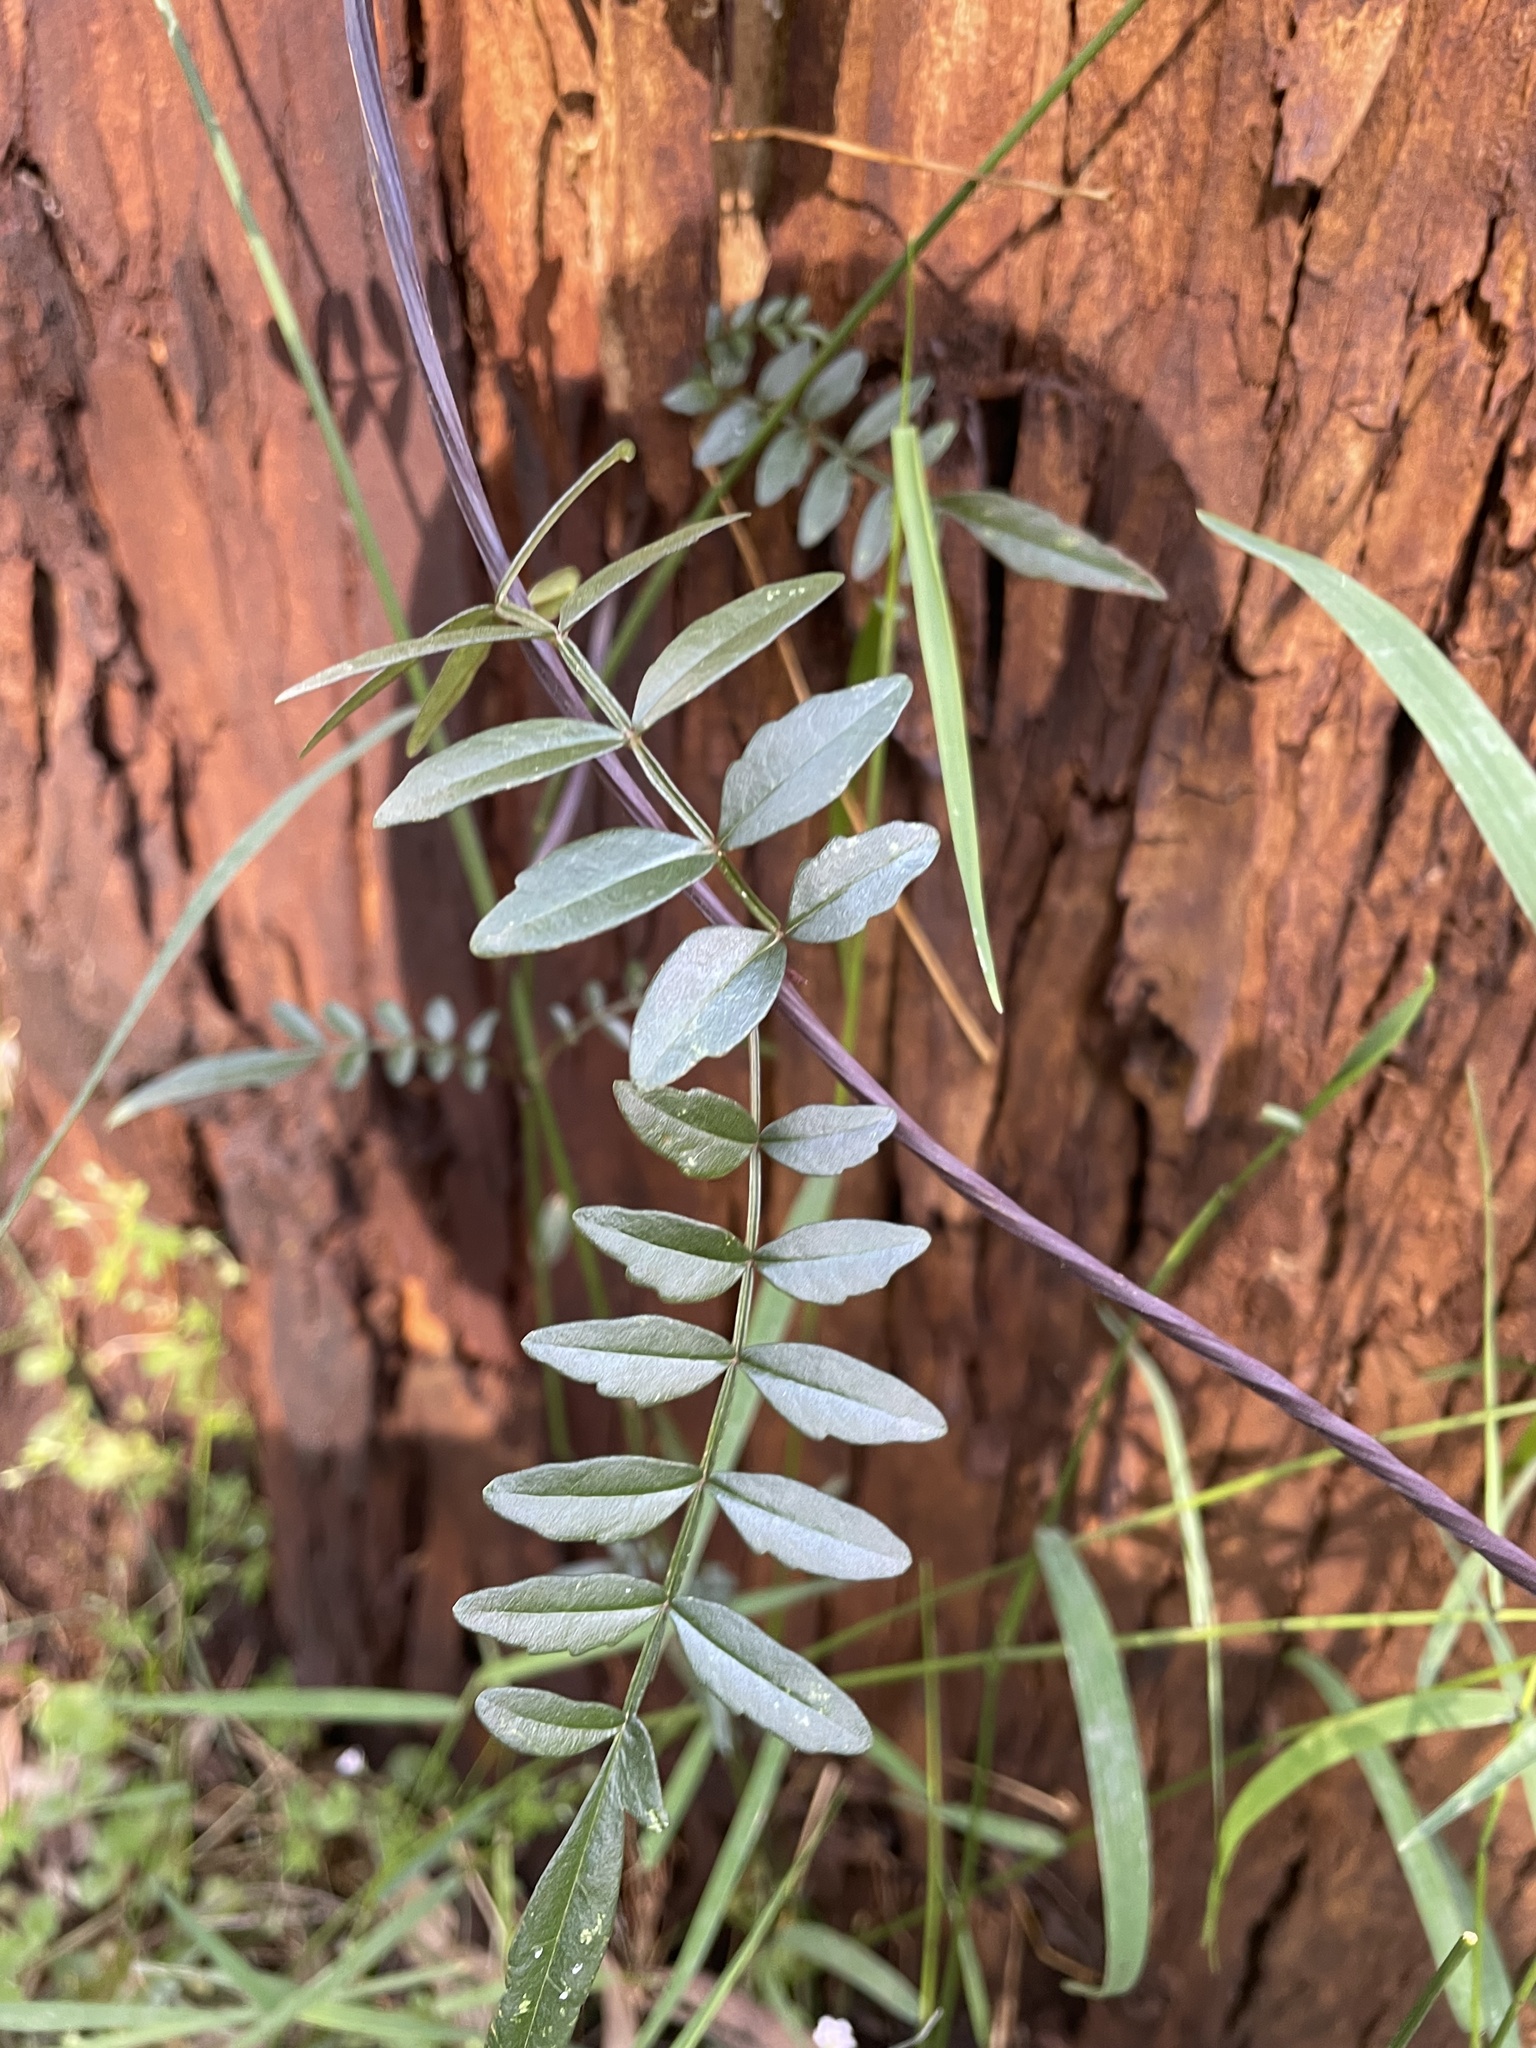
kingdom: Plantae
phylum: Tracheophyta
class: Magnoliopsida
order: Lamiales
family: Bignoniaceae
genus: Pandorea
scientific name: Pandorea pandorana
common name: Wonga-wonga-vine
